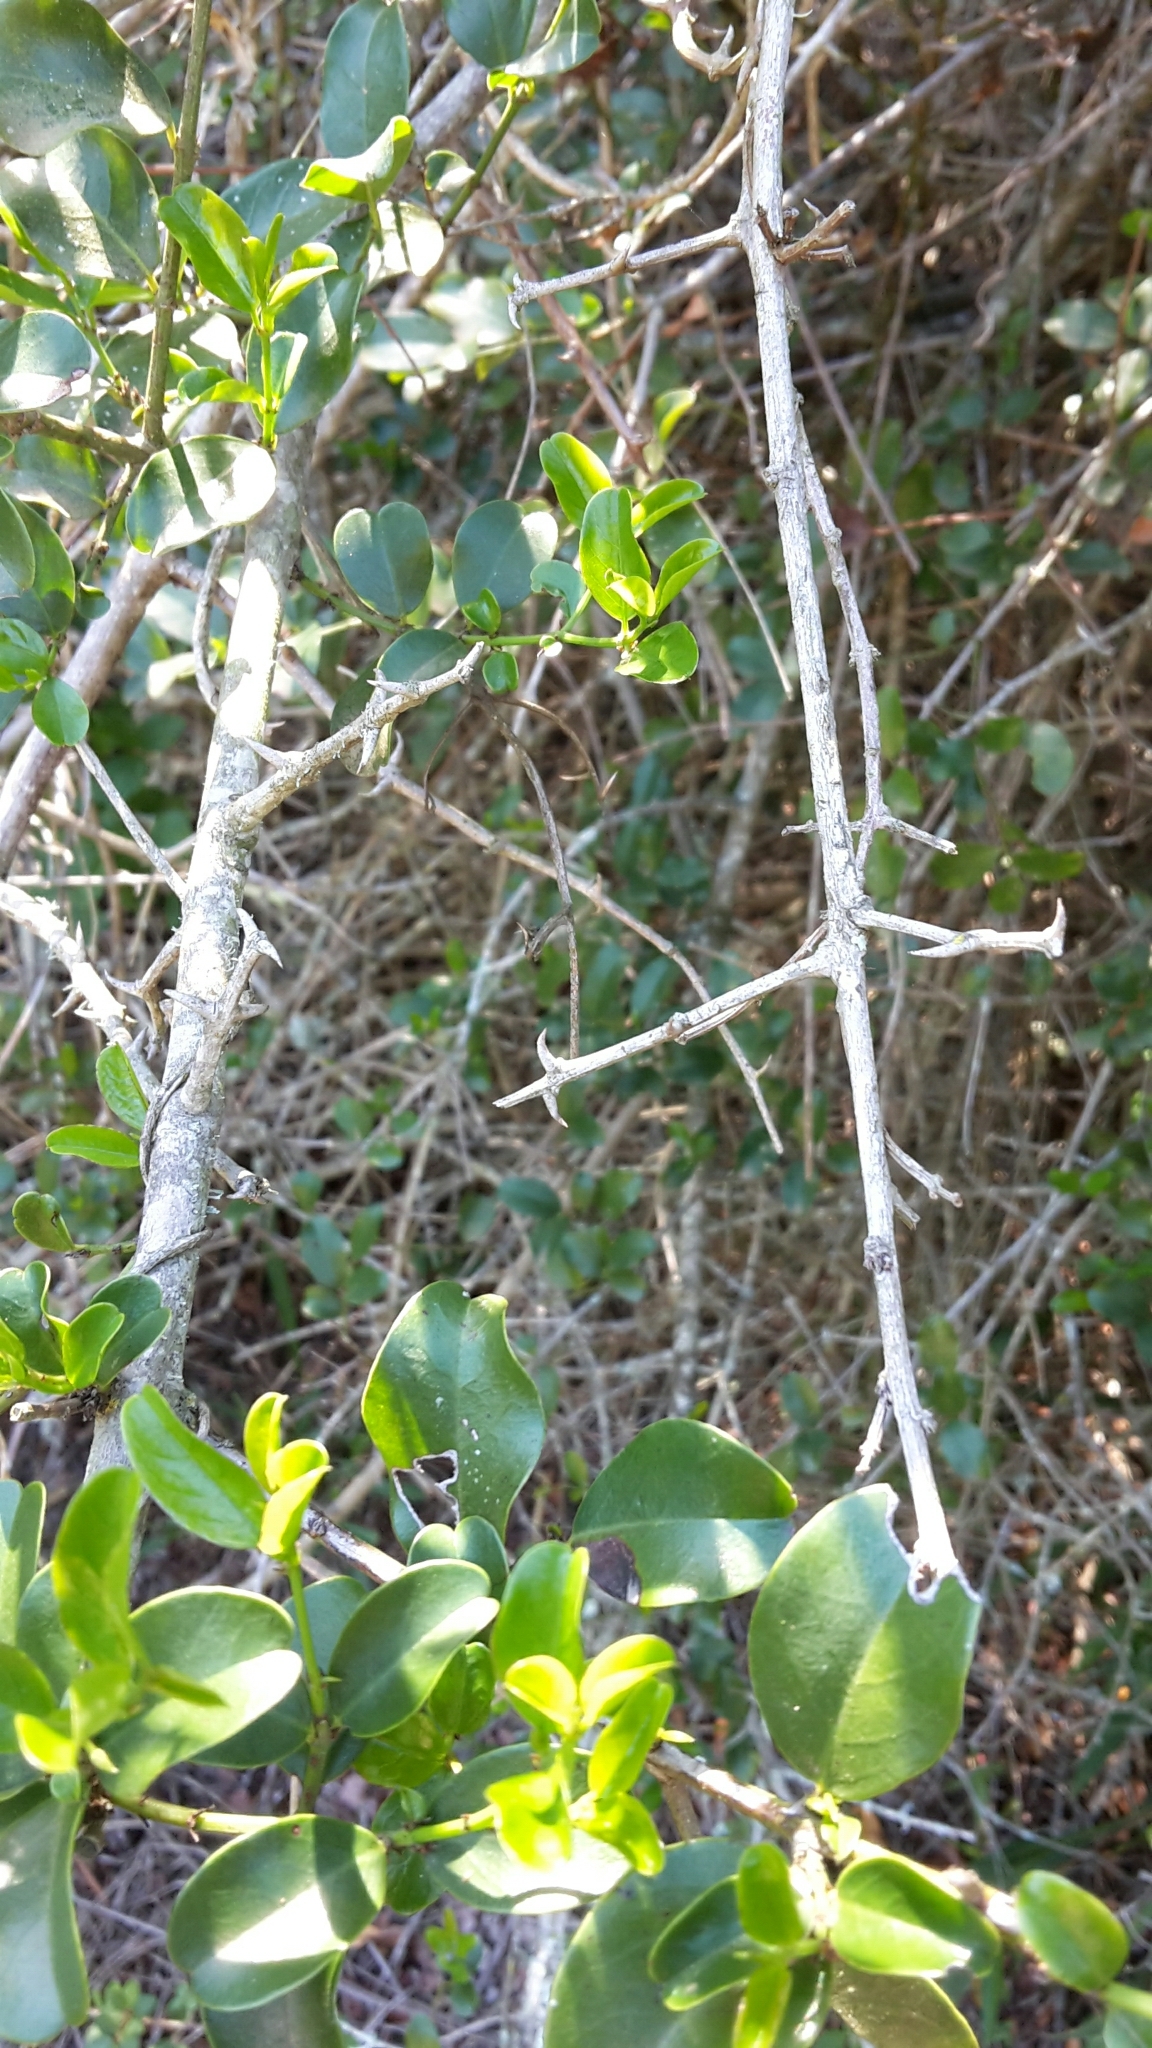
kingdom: Plantae
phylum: Tracheophyta
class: Magnoliopsida
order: Rosales
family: Rhamnaceae
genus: Scutia
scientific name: Scutia myrtina
